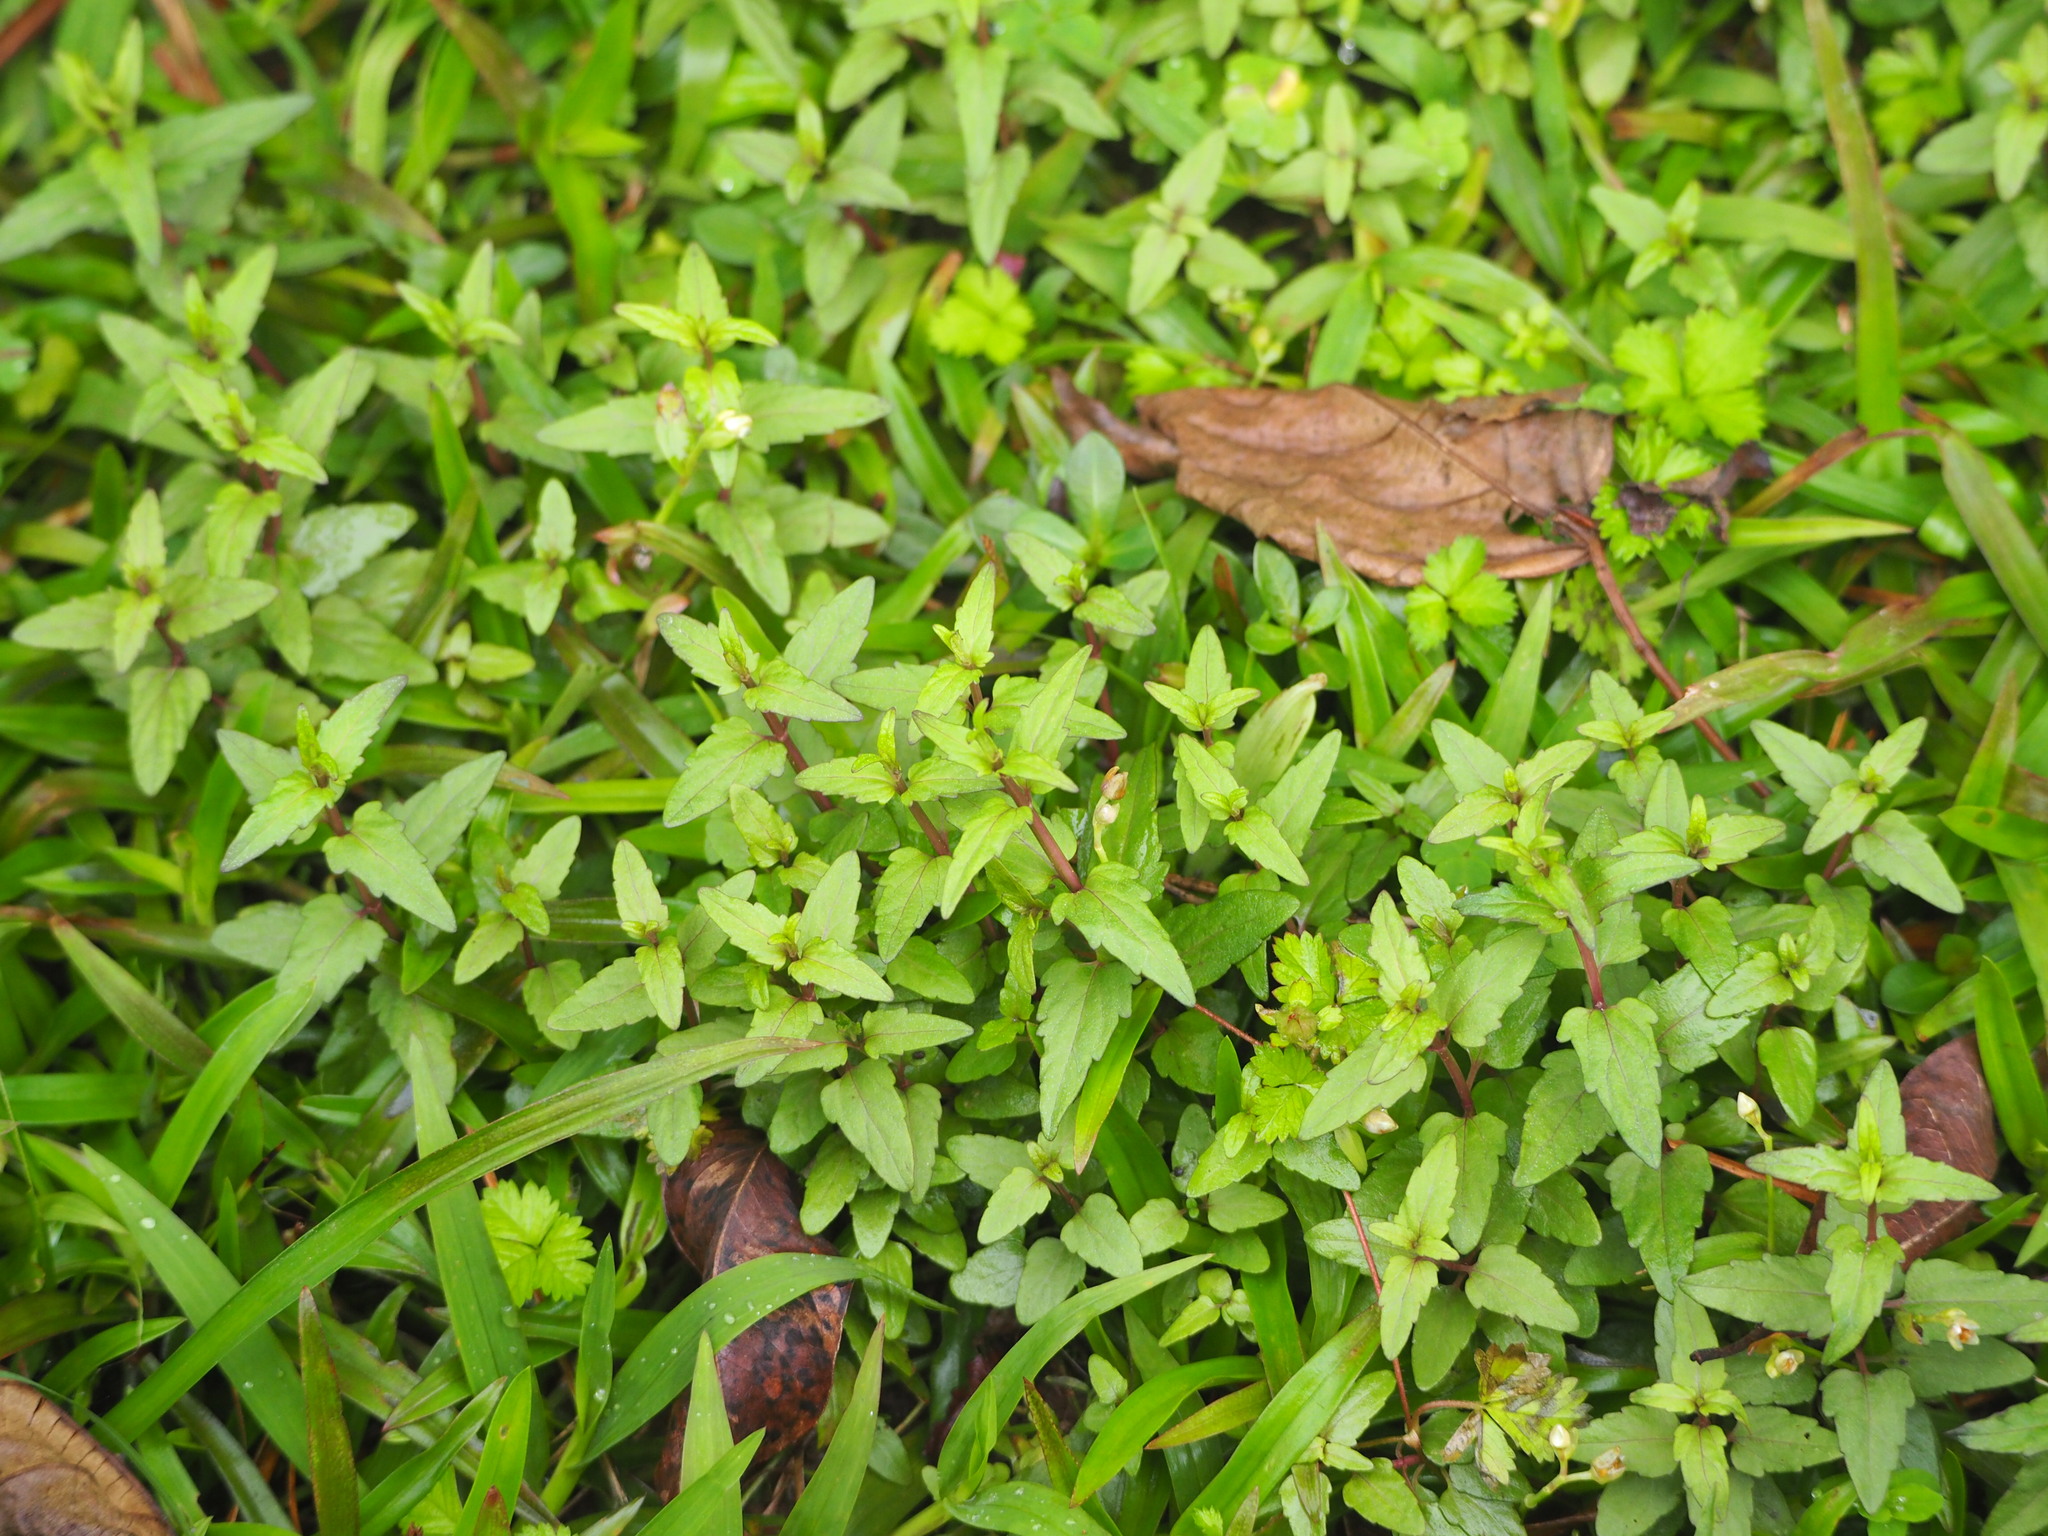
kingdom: Plantae
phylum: Tracheophyta
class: Magnoliopsida
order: Lamiales
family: Lamiaceae
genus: Scutellaria
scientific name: Scutellaria barbata
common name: Barbed skullcap
